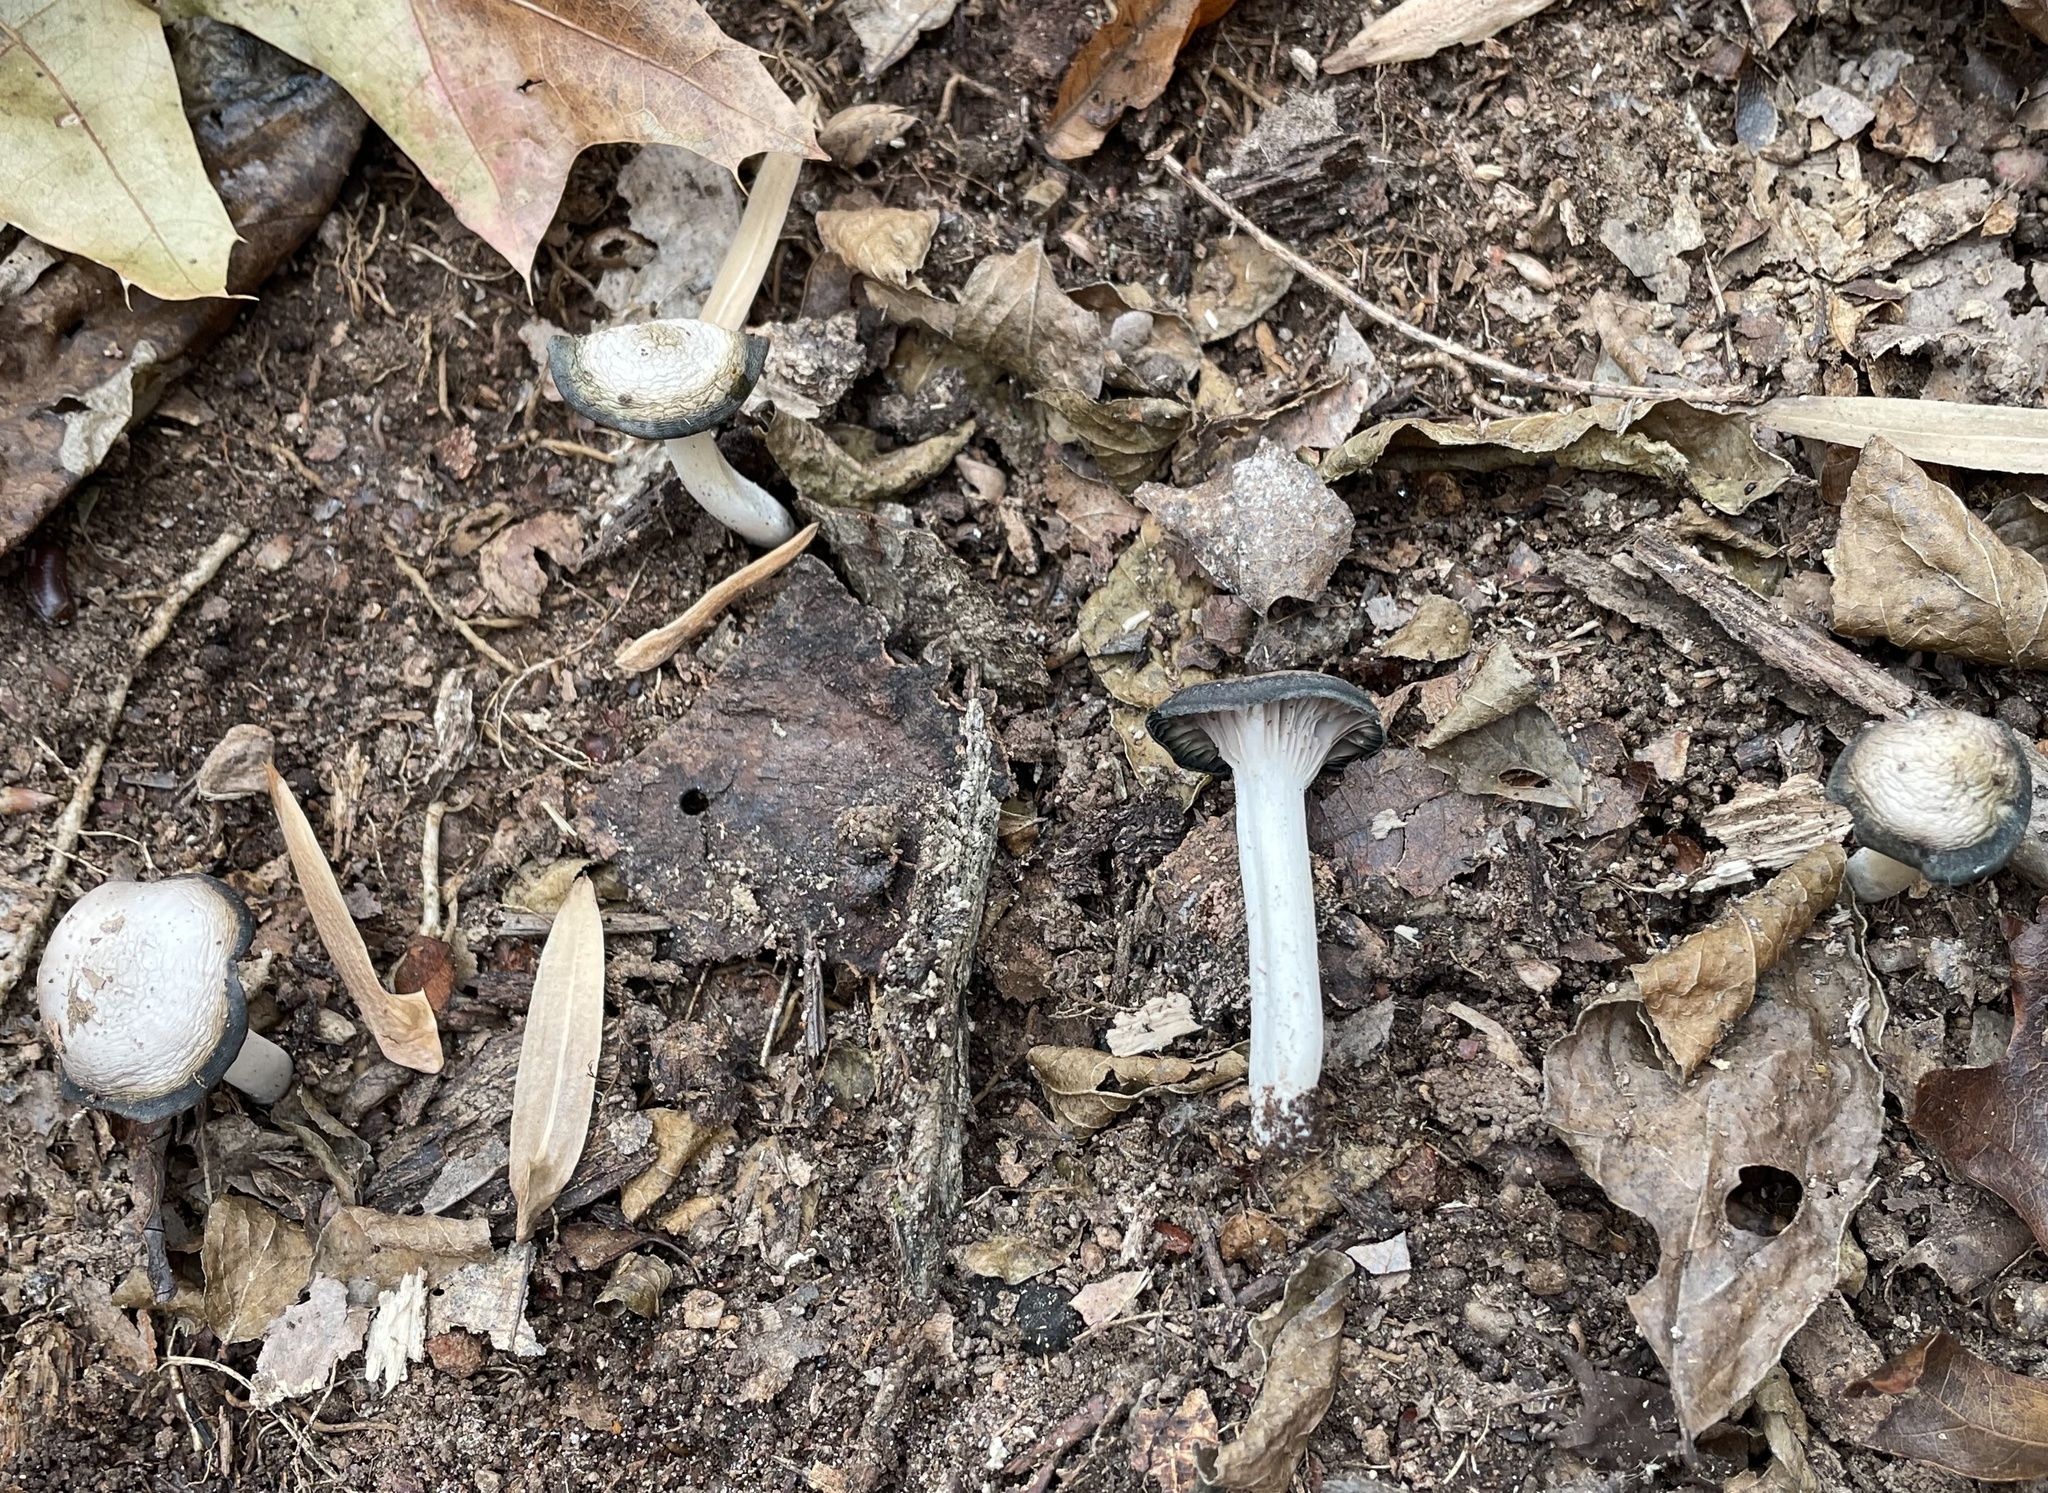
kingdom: Fungi
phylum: Basidiomycota
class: Agaricomycetes
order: Agaricales
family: Hygrophoraceae
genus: Cuphophyllus
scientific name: Cuphophyllus lacmus
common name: Grey waxcap
